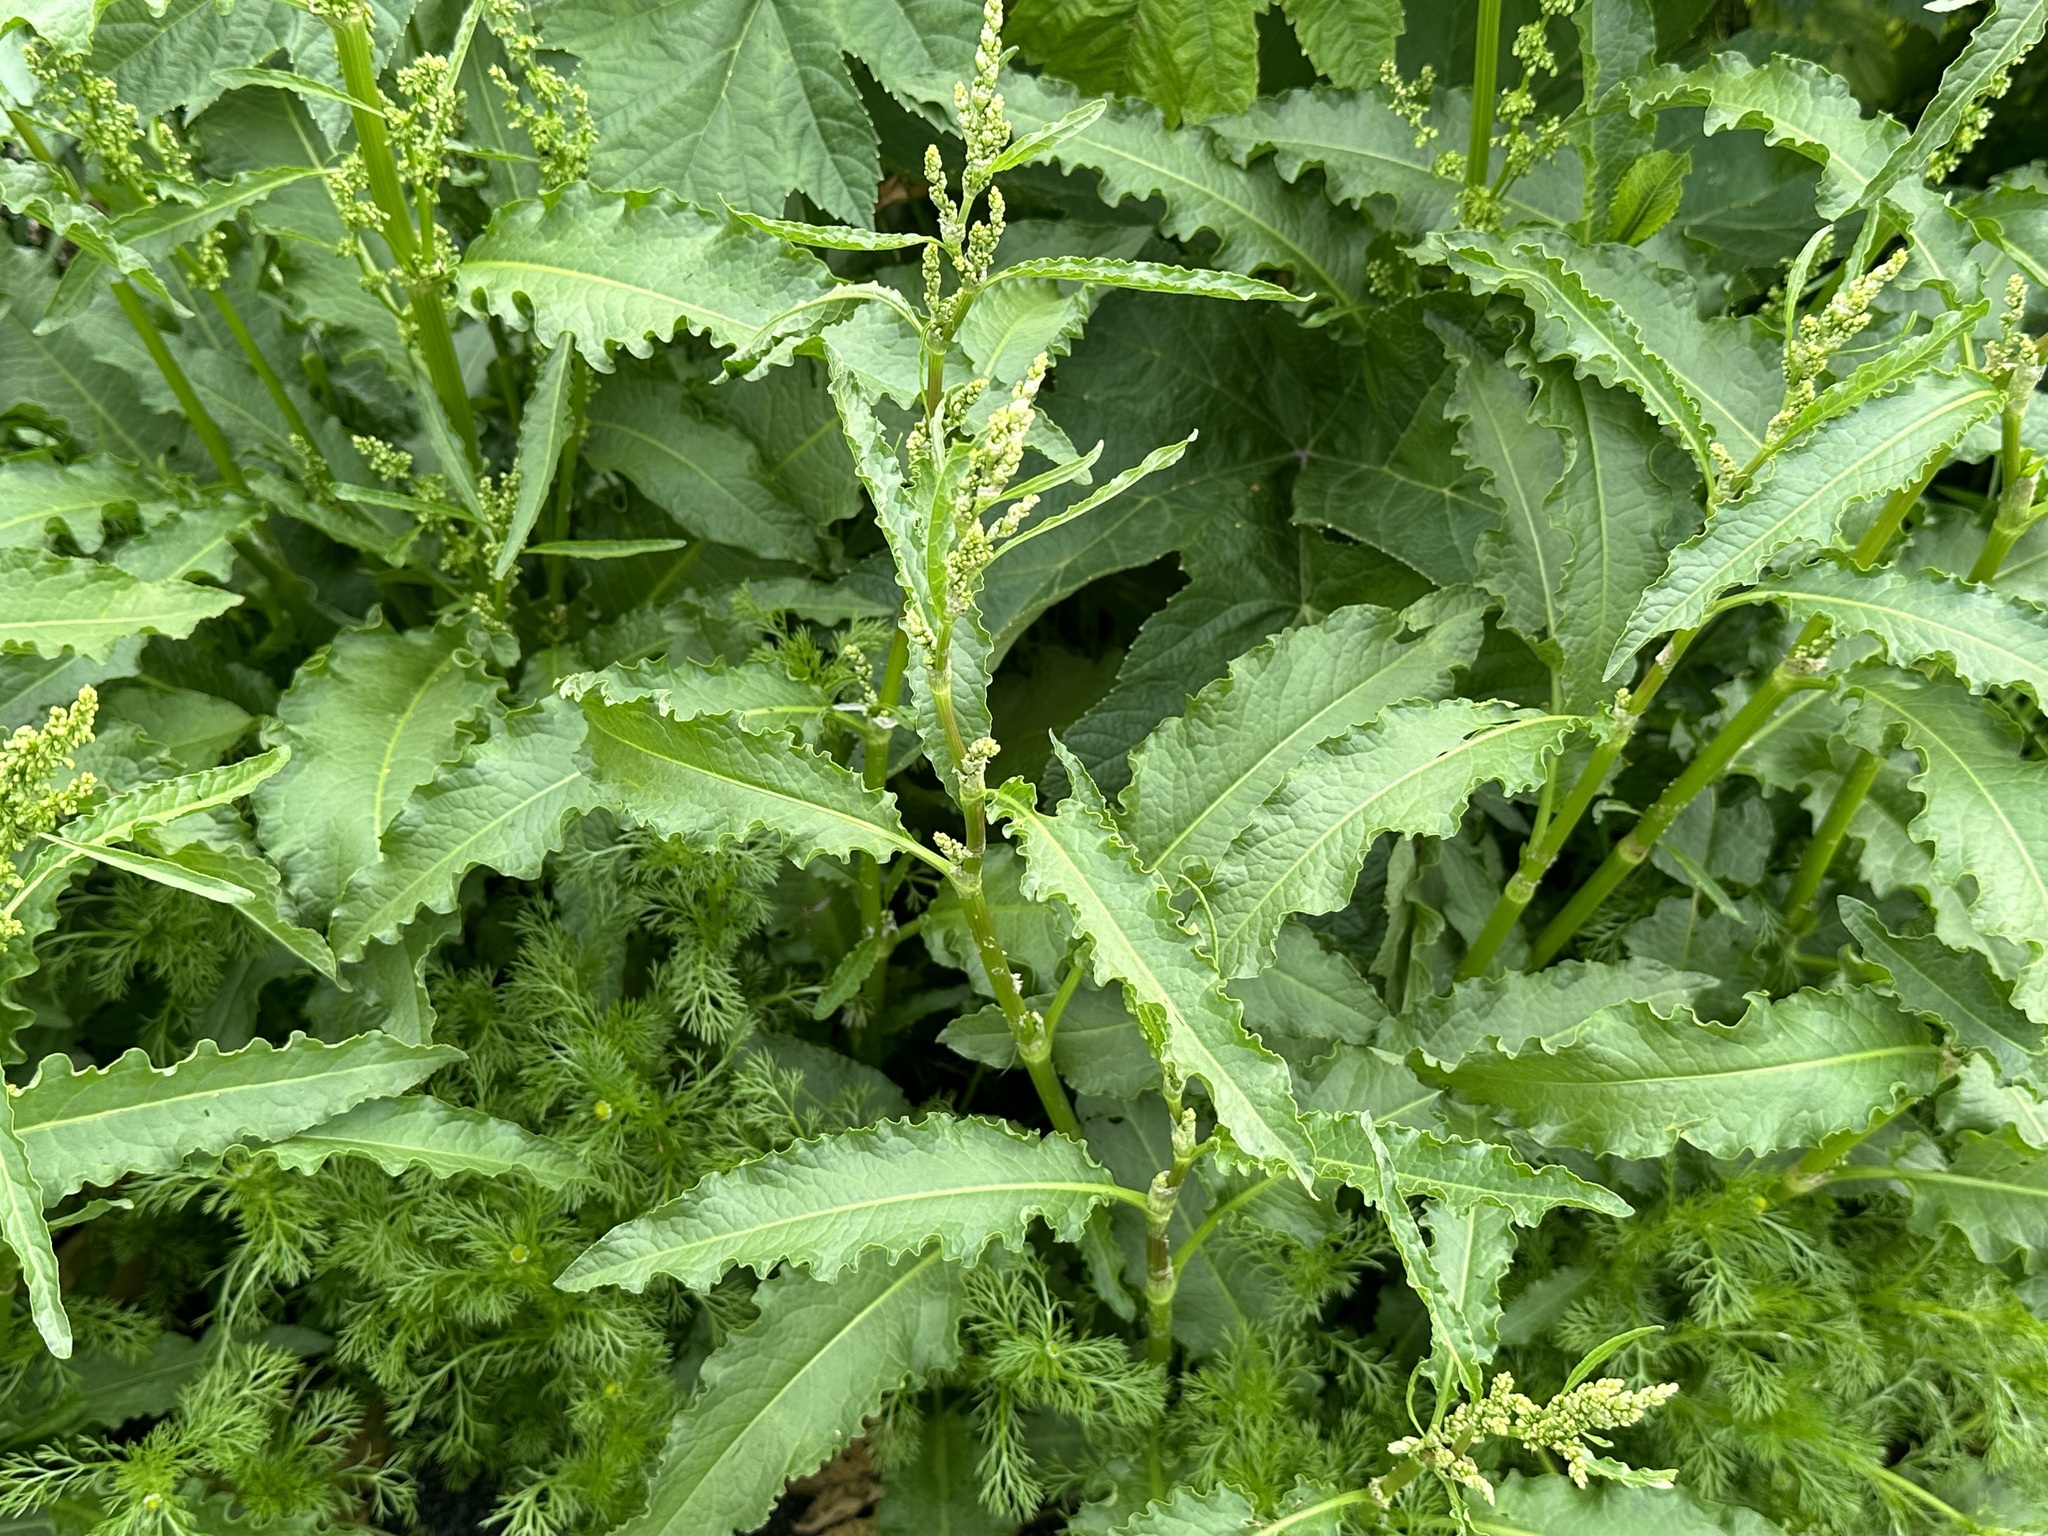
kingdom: Plantae
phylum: Tracheophyta
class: Magnoliopsida
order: Caryophyllales
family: Polygonaceae
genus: Rumex
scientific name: Rumex crispus
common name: Curled dock
